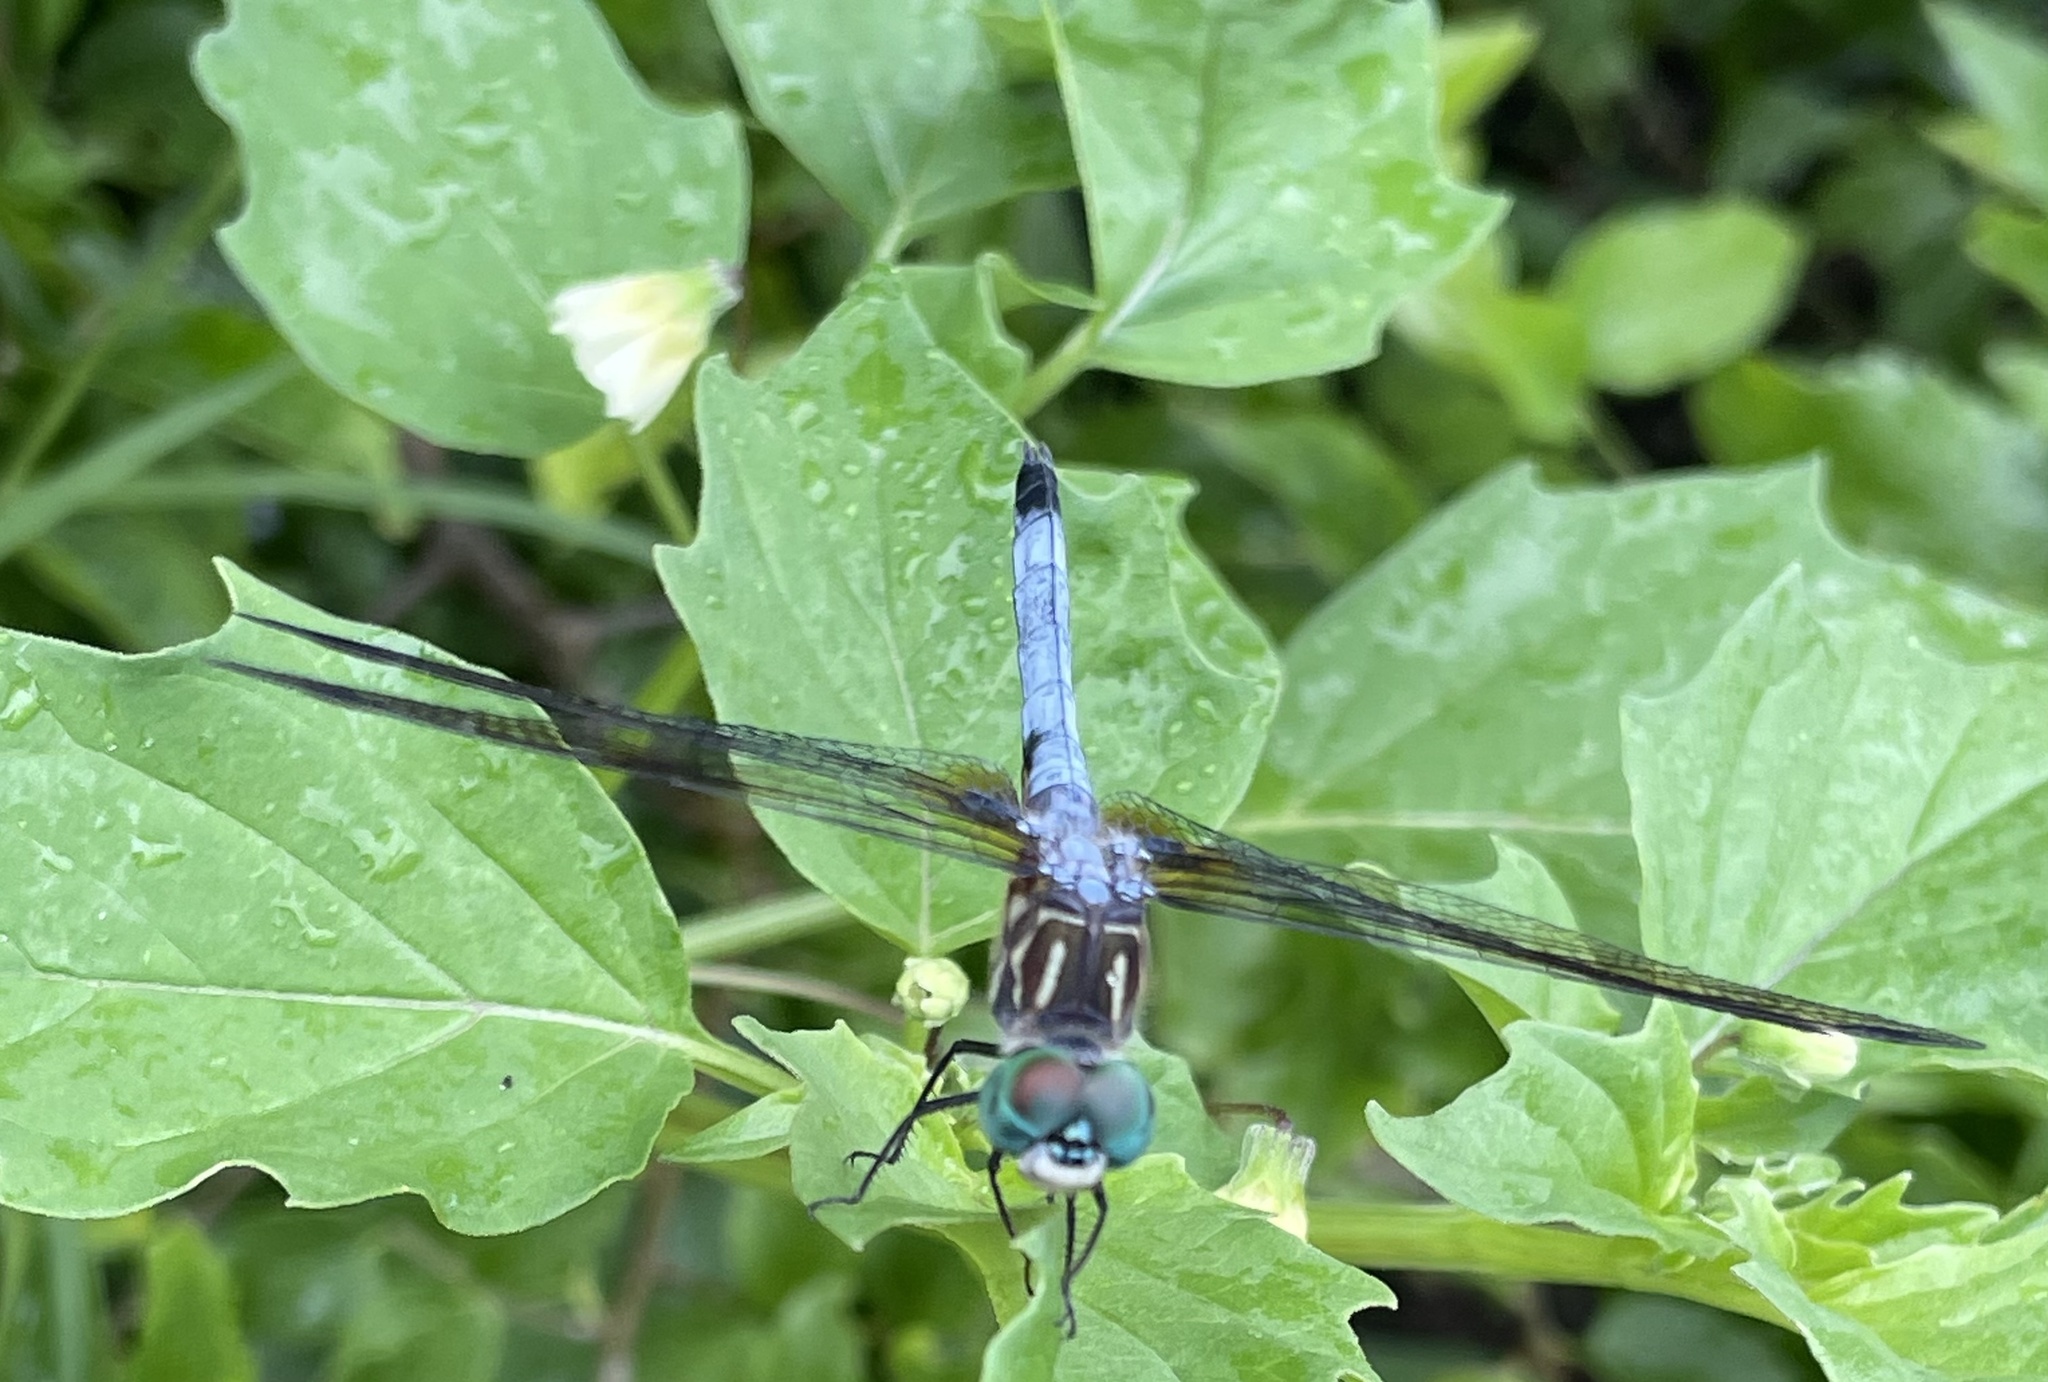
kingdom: Animalia
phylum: Arthropoda
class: Insecta
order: Odonata
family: Libellulidae
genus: Pachydiplax
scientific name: Pachydiplax longipennis
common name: Blue dasher
